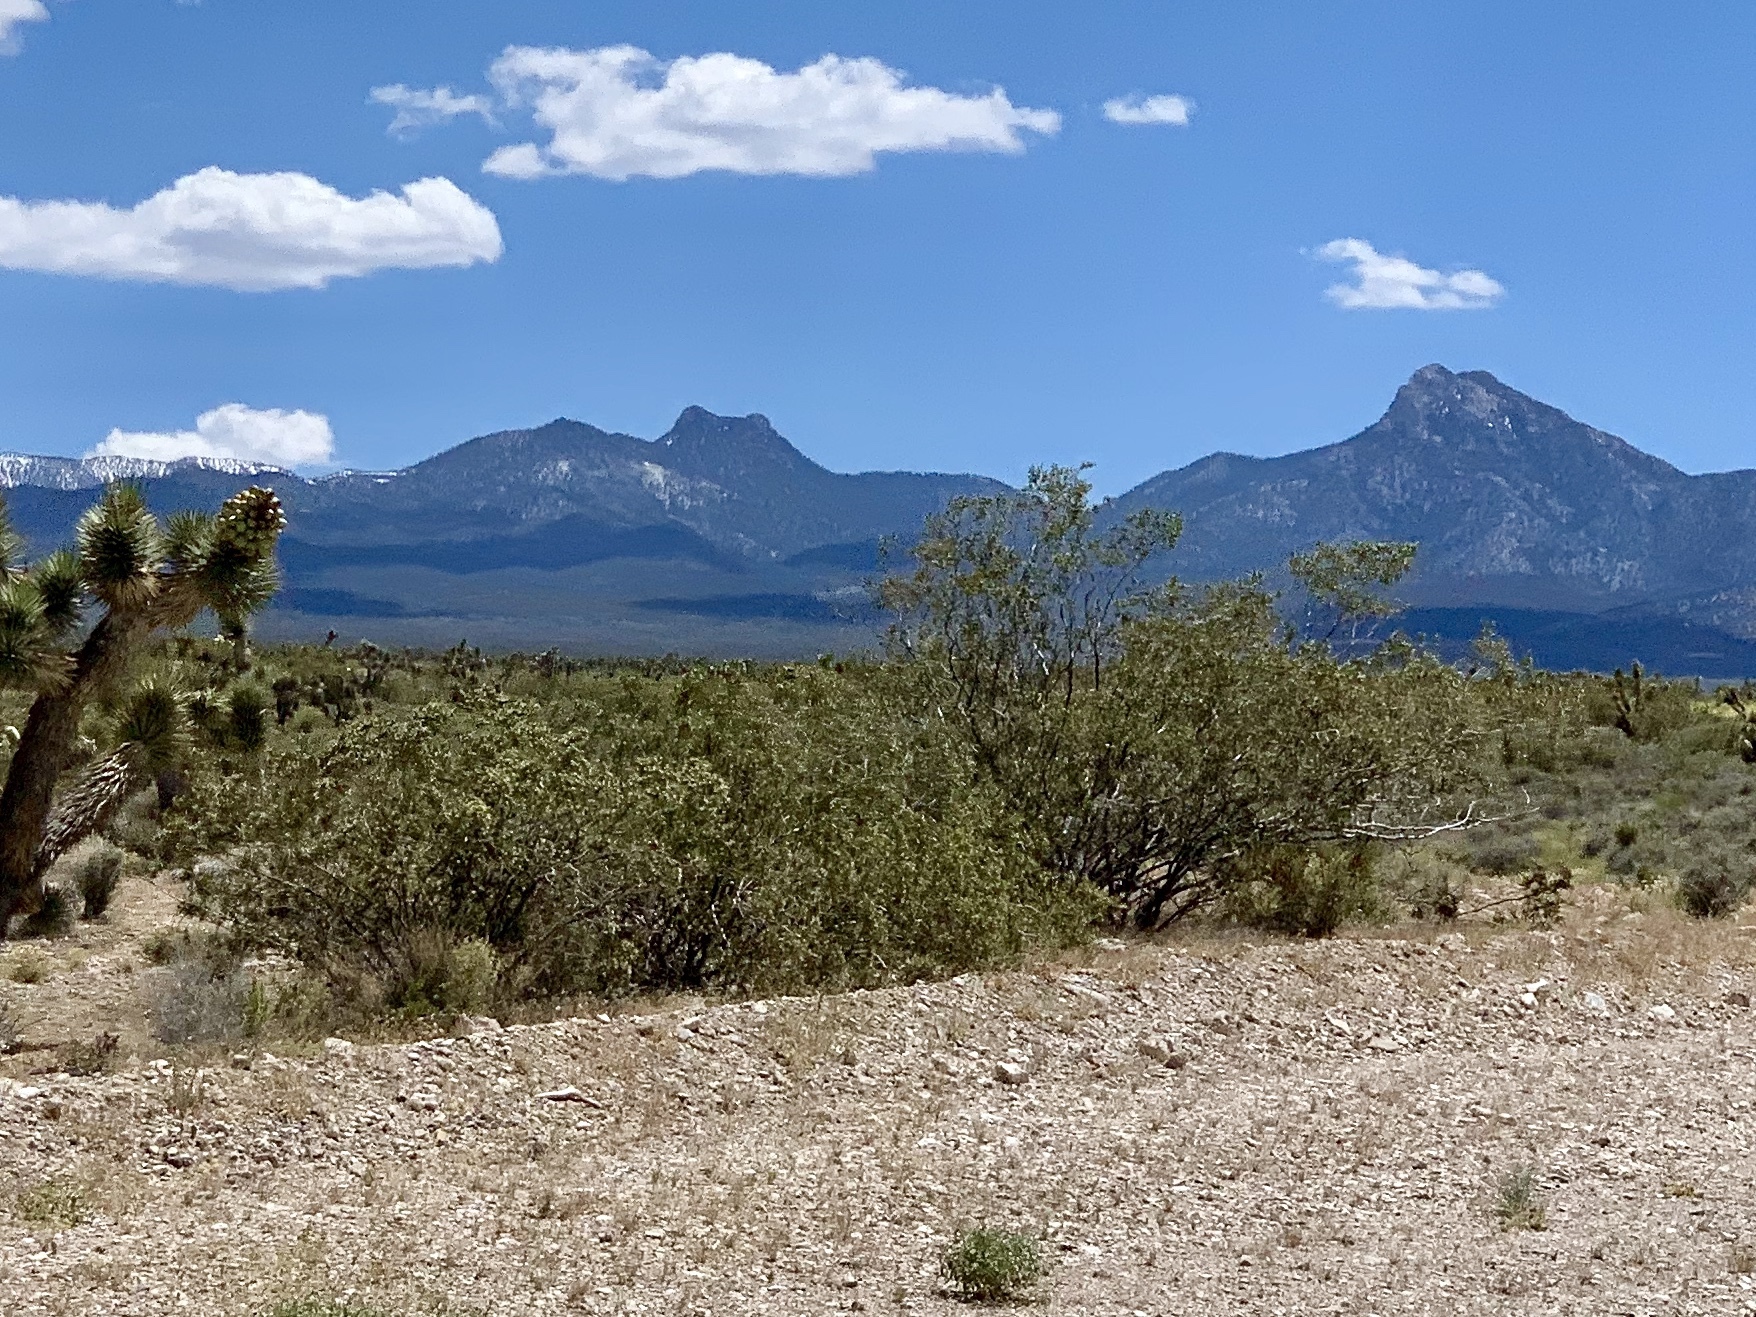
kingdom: Plantae
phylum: Tracheophyta
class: Magnoliopsida
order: Zygophyllales
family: Zygophyllaceae
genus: Larrea
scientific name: Larrea tridentata
